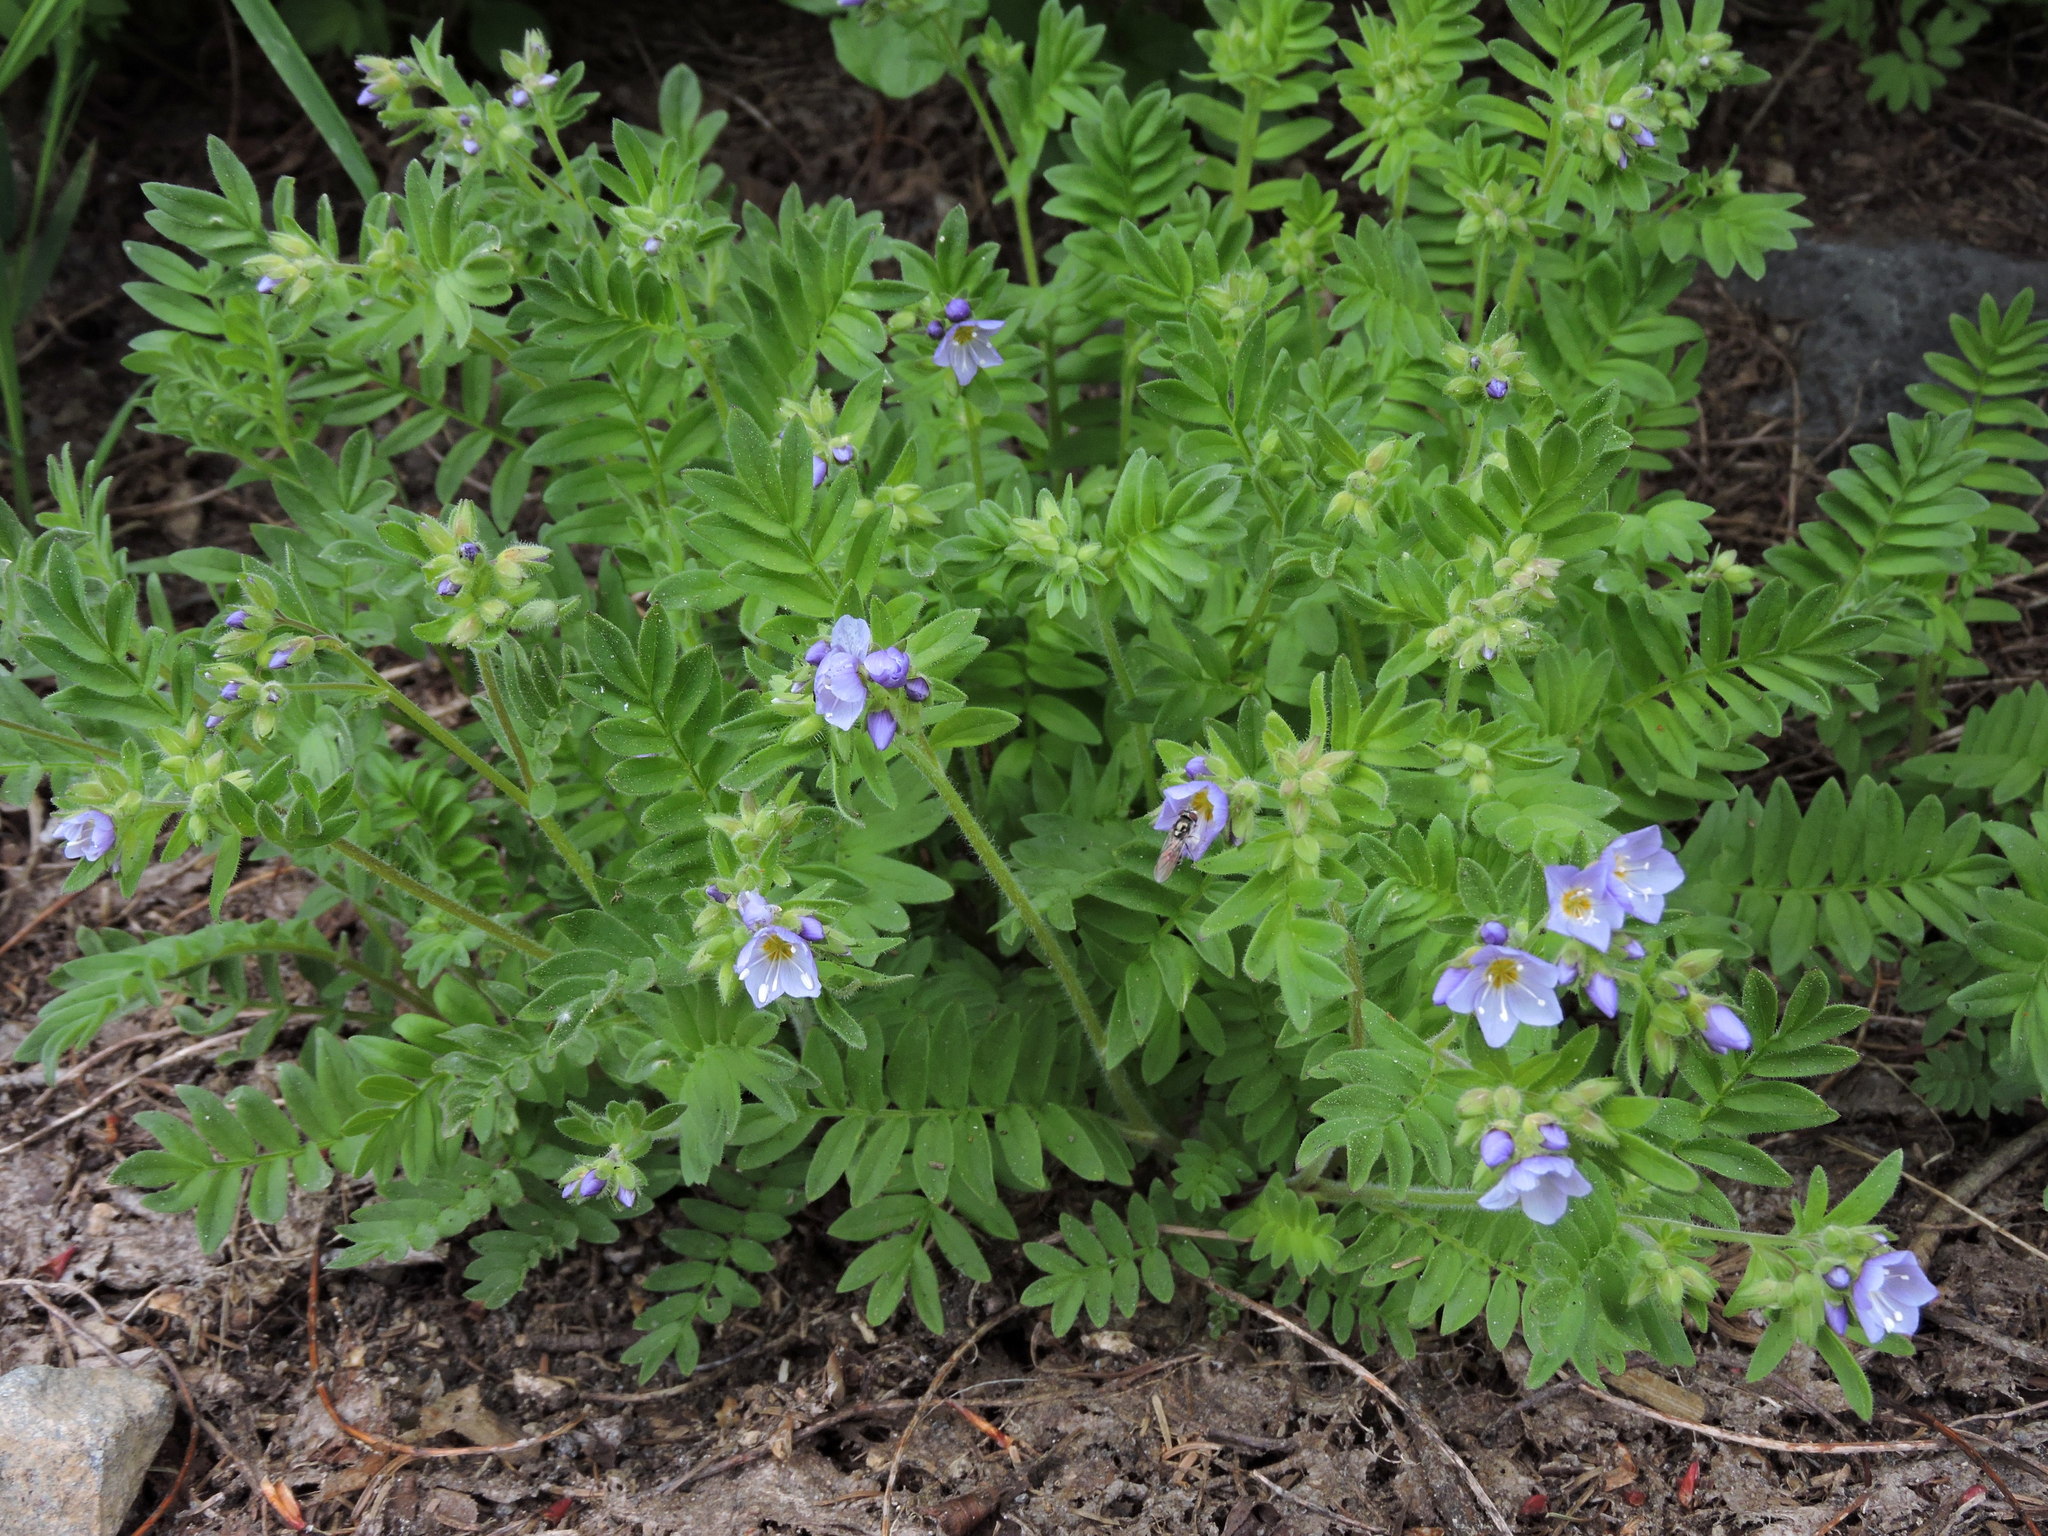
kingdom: Plantae
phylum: Tracheophyta
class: Magnoliopsida
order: Ericales
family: Polemoniaceae
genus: Polemonium
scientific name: Polemonium californicum
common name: California jacob's ladder
